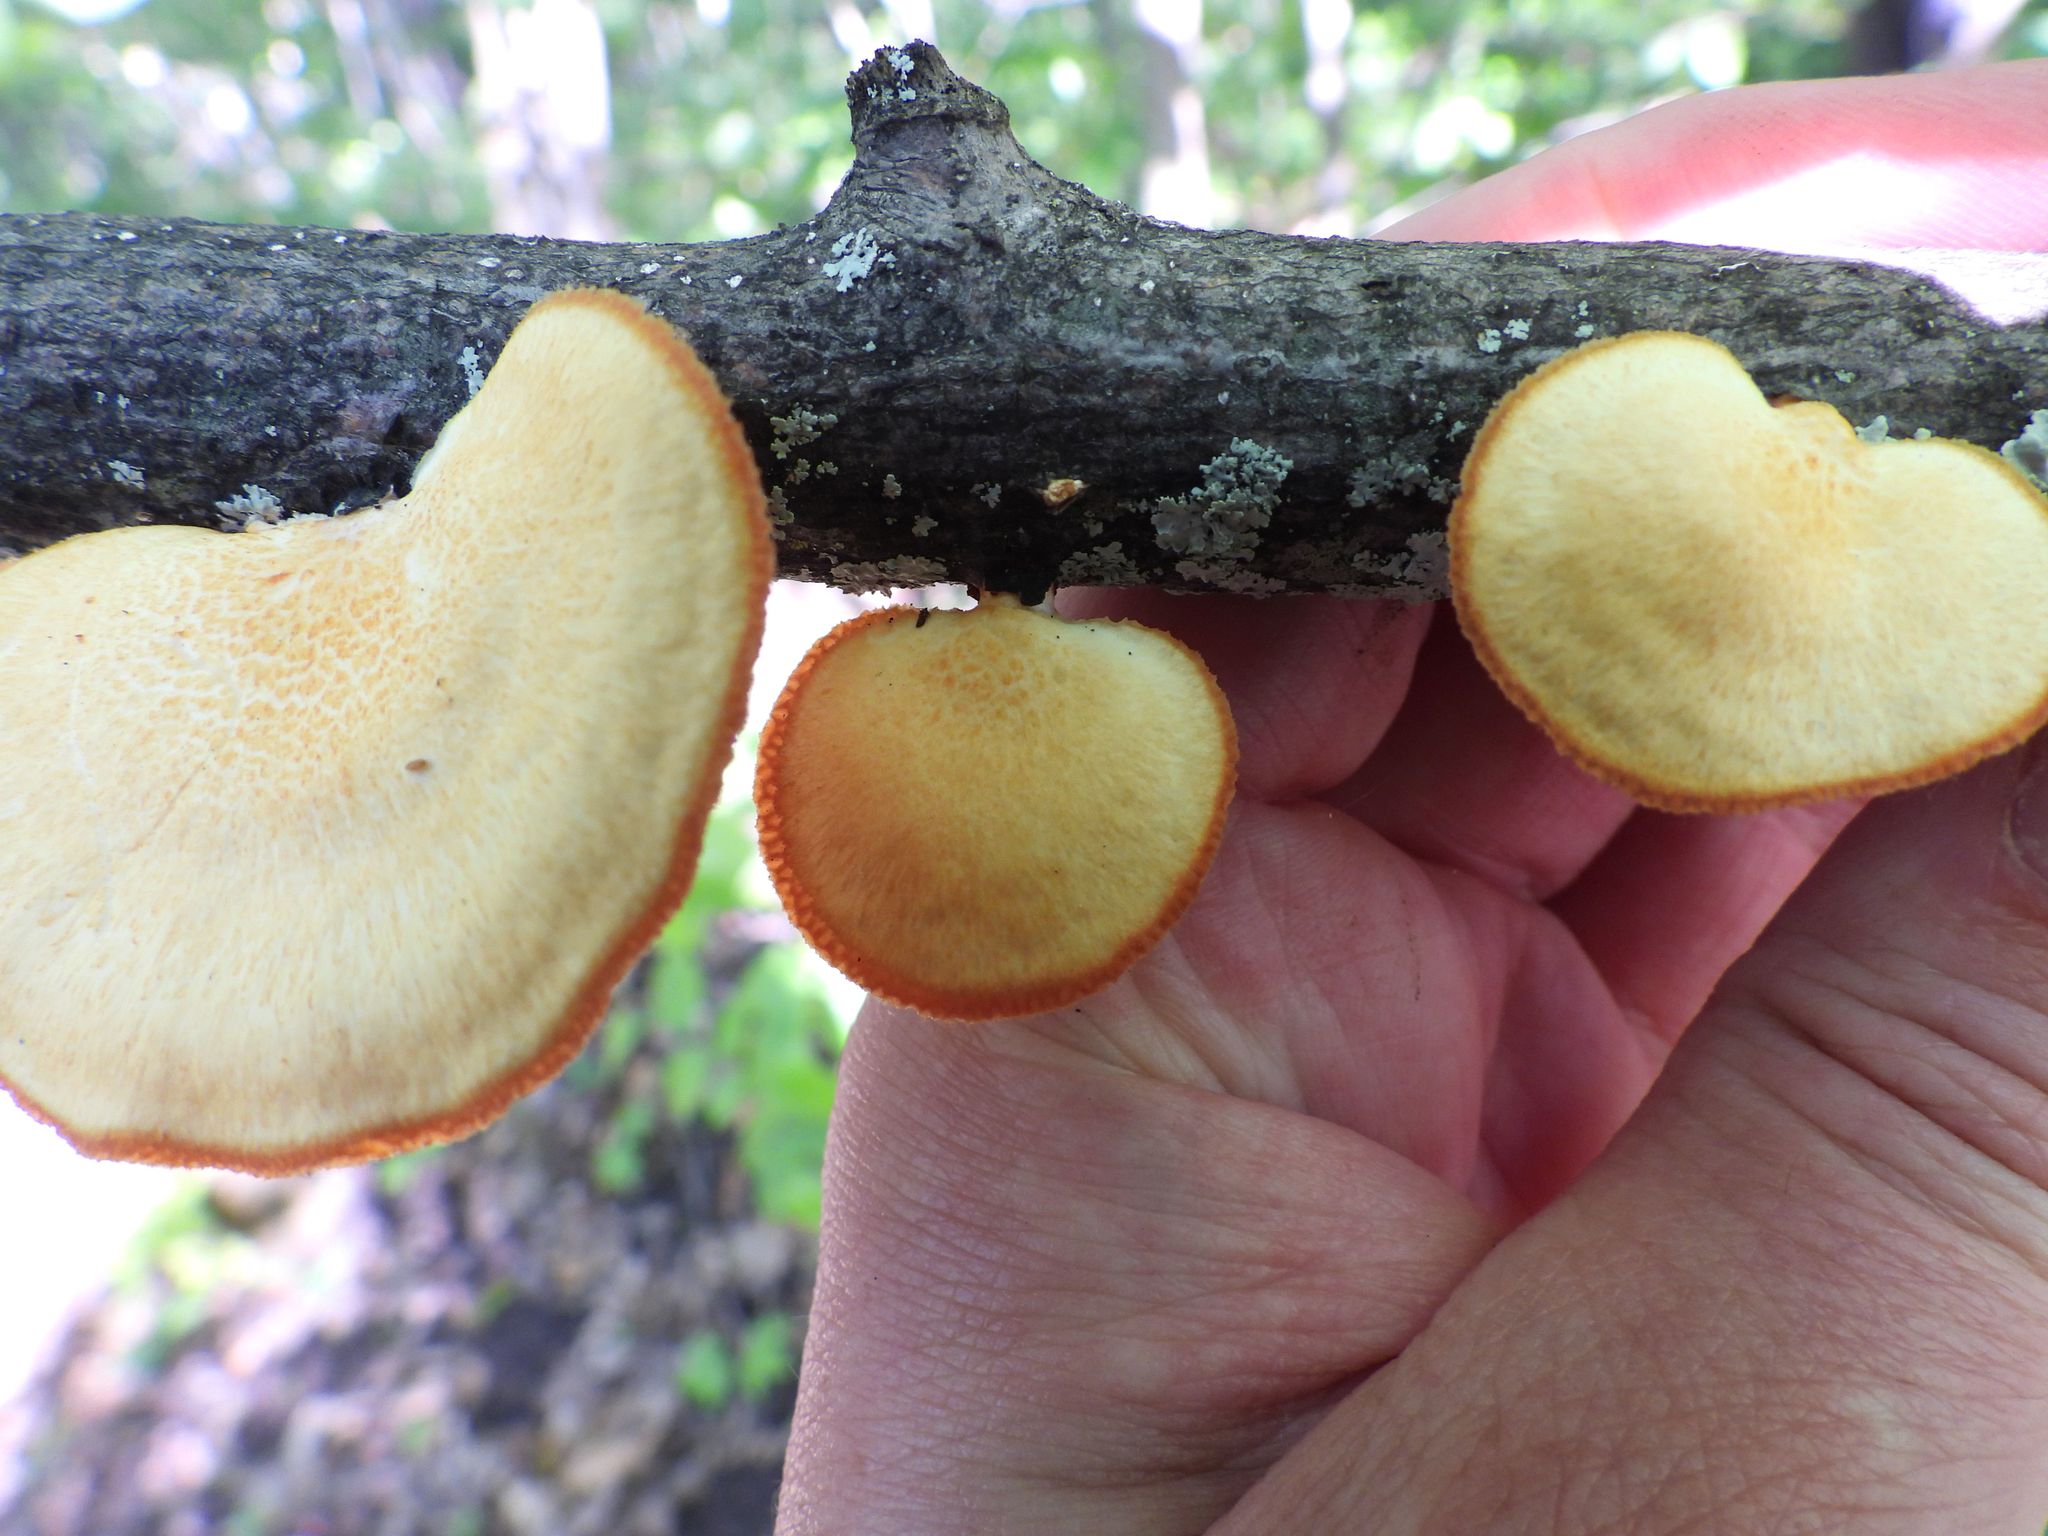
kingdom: Fungi
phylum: Basidiomycota
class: Agaricomycetes
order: Polyporales
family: Polyporaceae
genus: Neofavolus
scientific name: Neofavolus alveolaris
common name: Hexagonal-pored polypore
